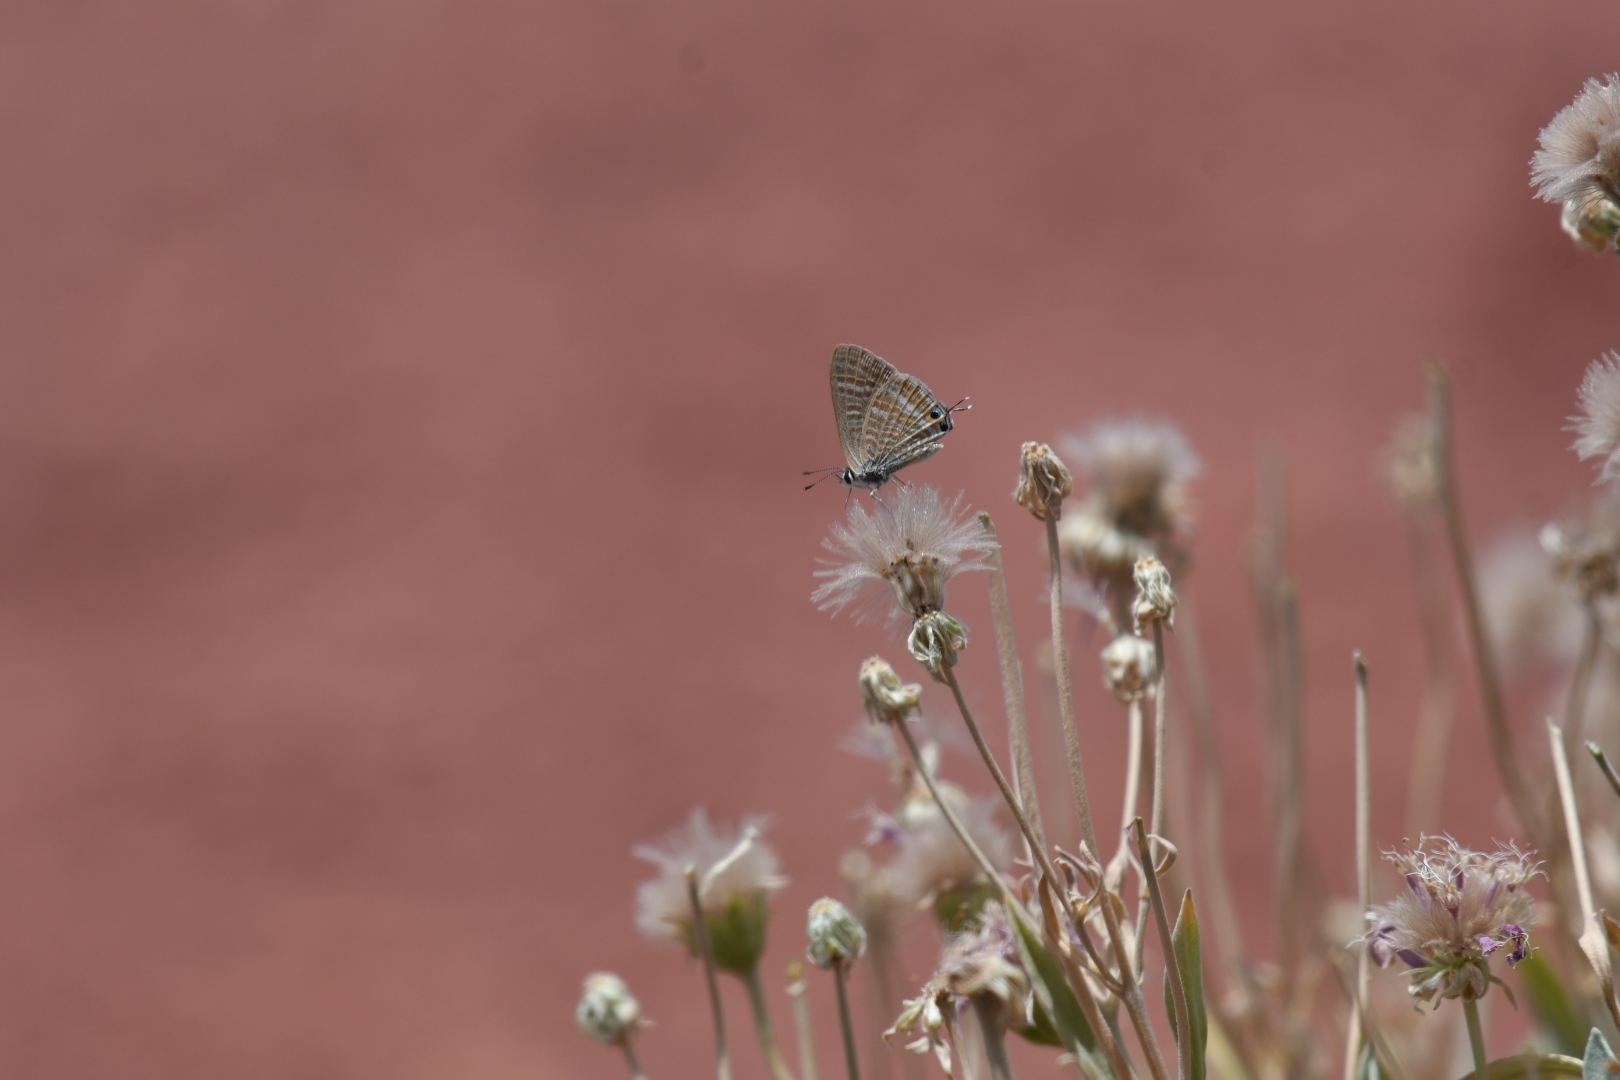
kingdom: Animalia
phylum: Arthropoda
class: Insecta
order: Lepidoptera
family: Lycaenidae
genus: Lampides
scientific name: Lampides boeticus
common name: Long-tailed blue
